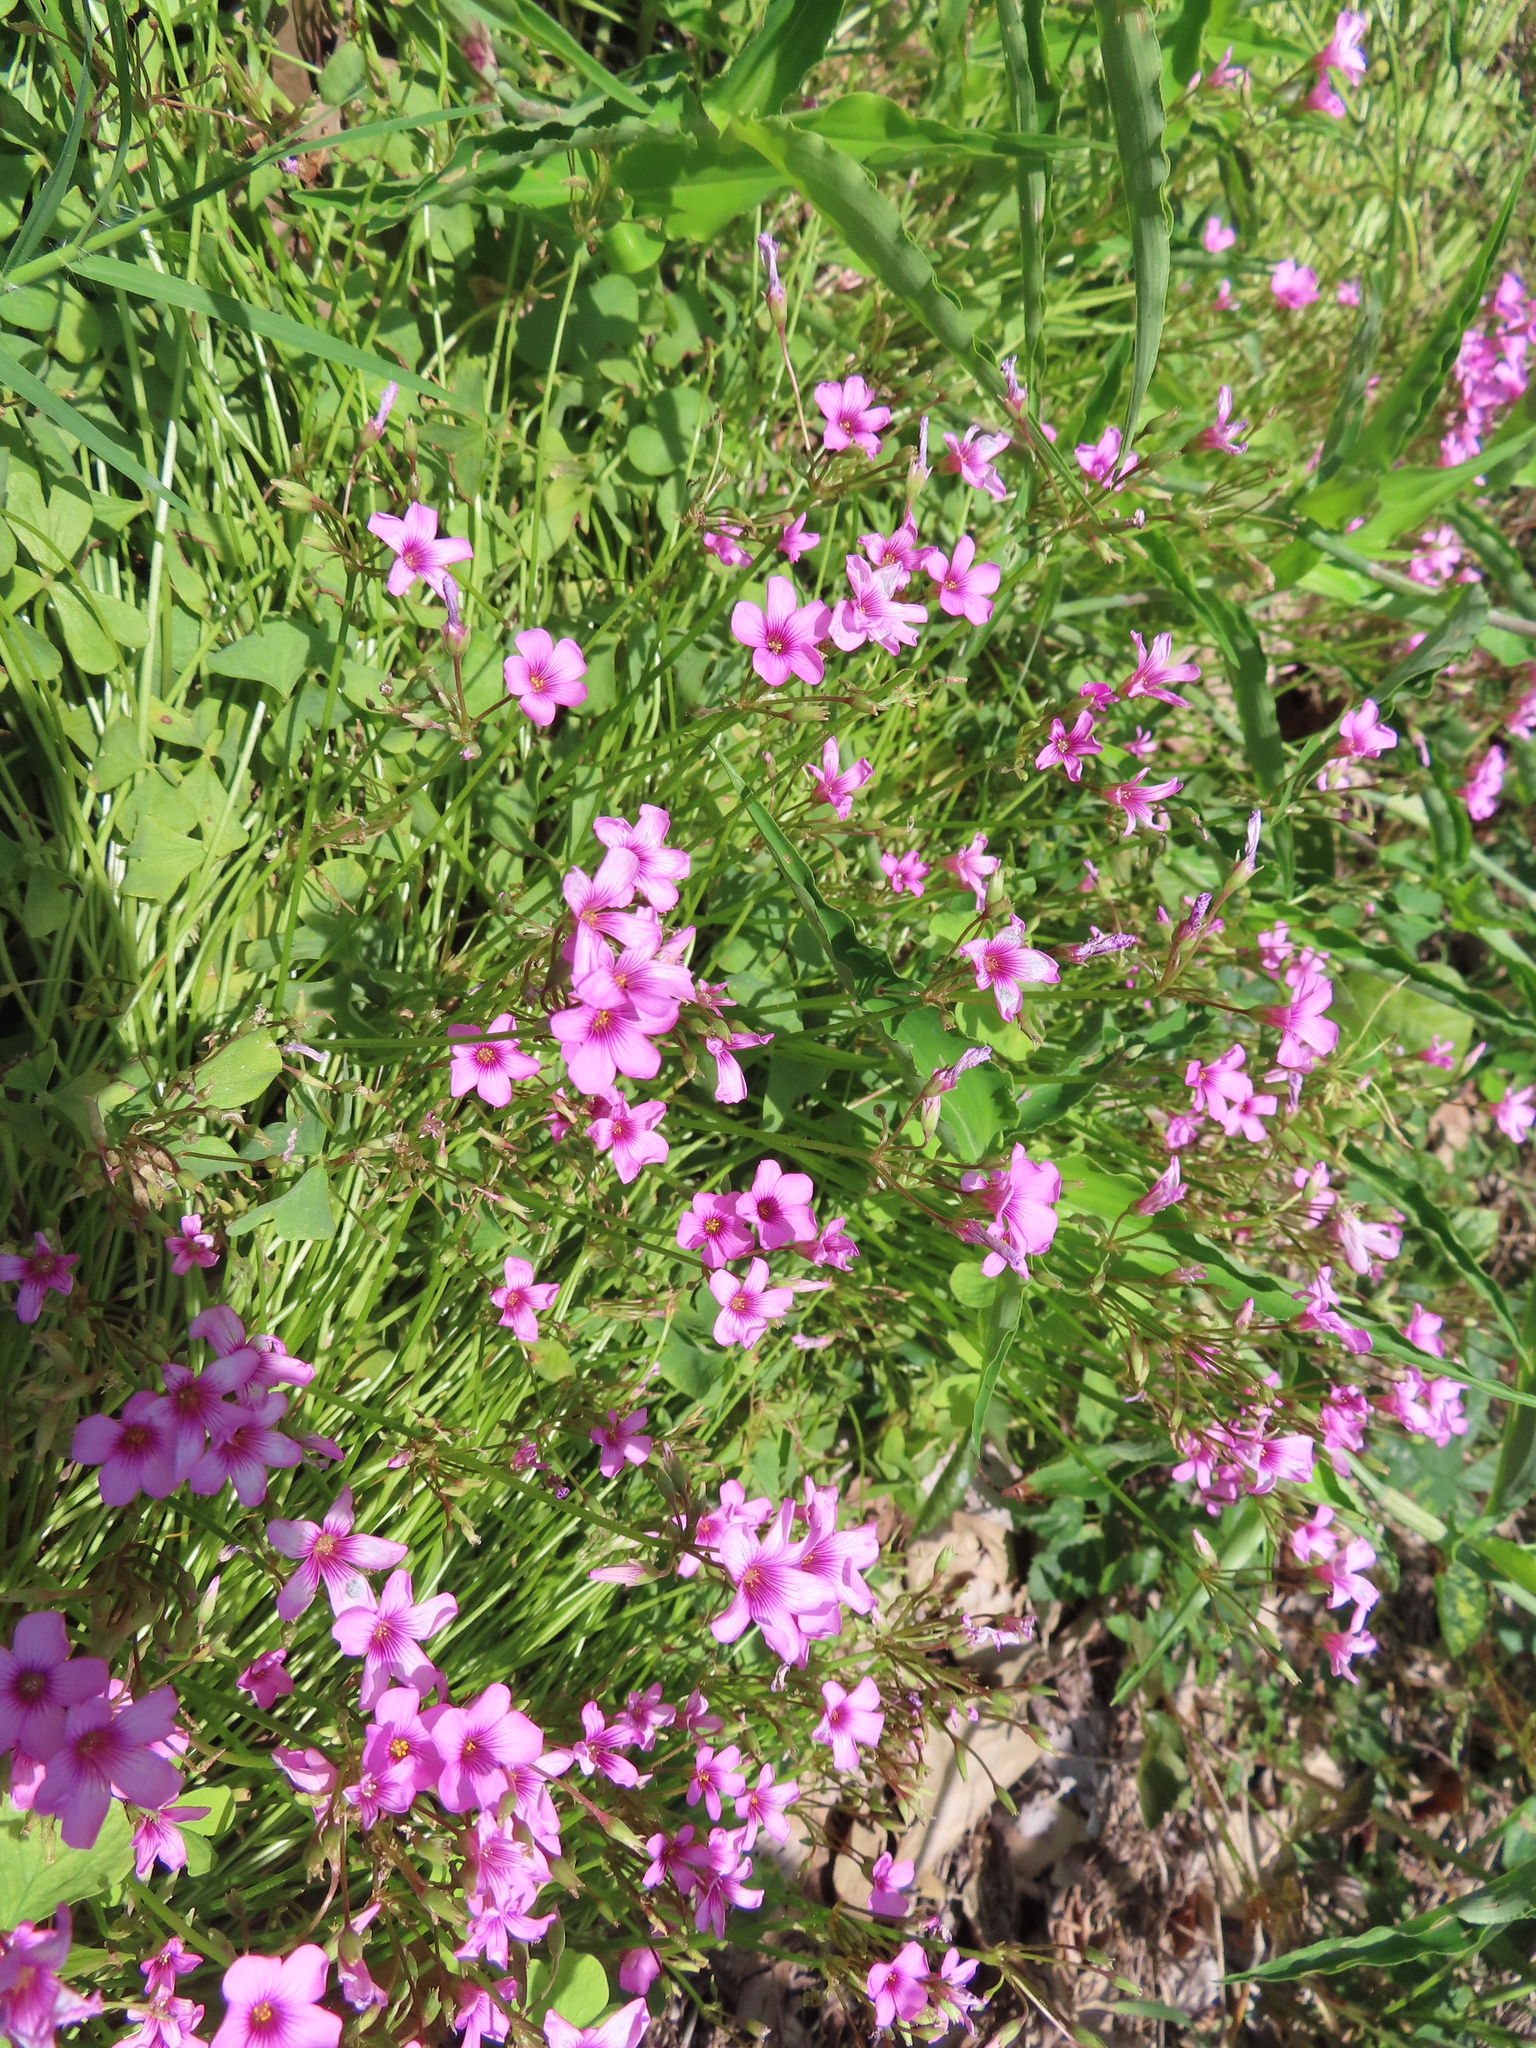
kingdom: Plantae
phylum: Tracheophyta
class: Magnoliopsida
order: Oxalidales
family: Oxalidaceae
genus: Oxalis
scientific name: Oxalis articulata
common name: Pink-sorrel
